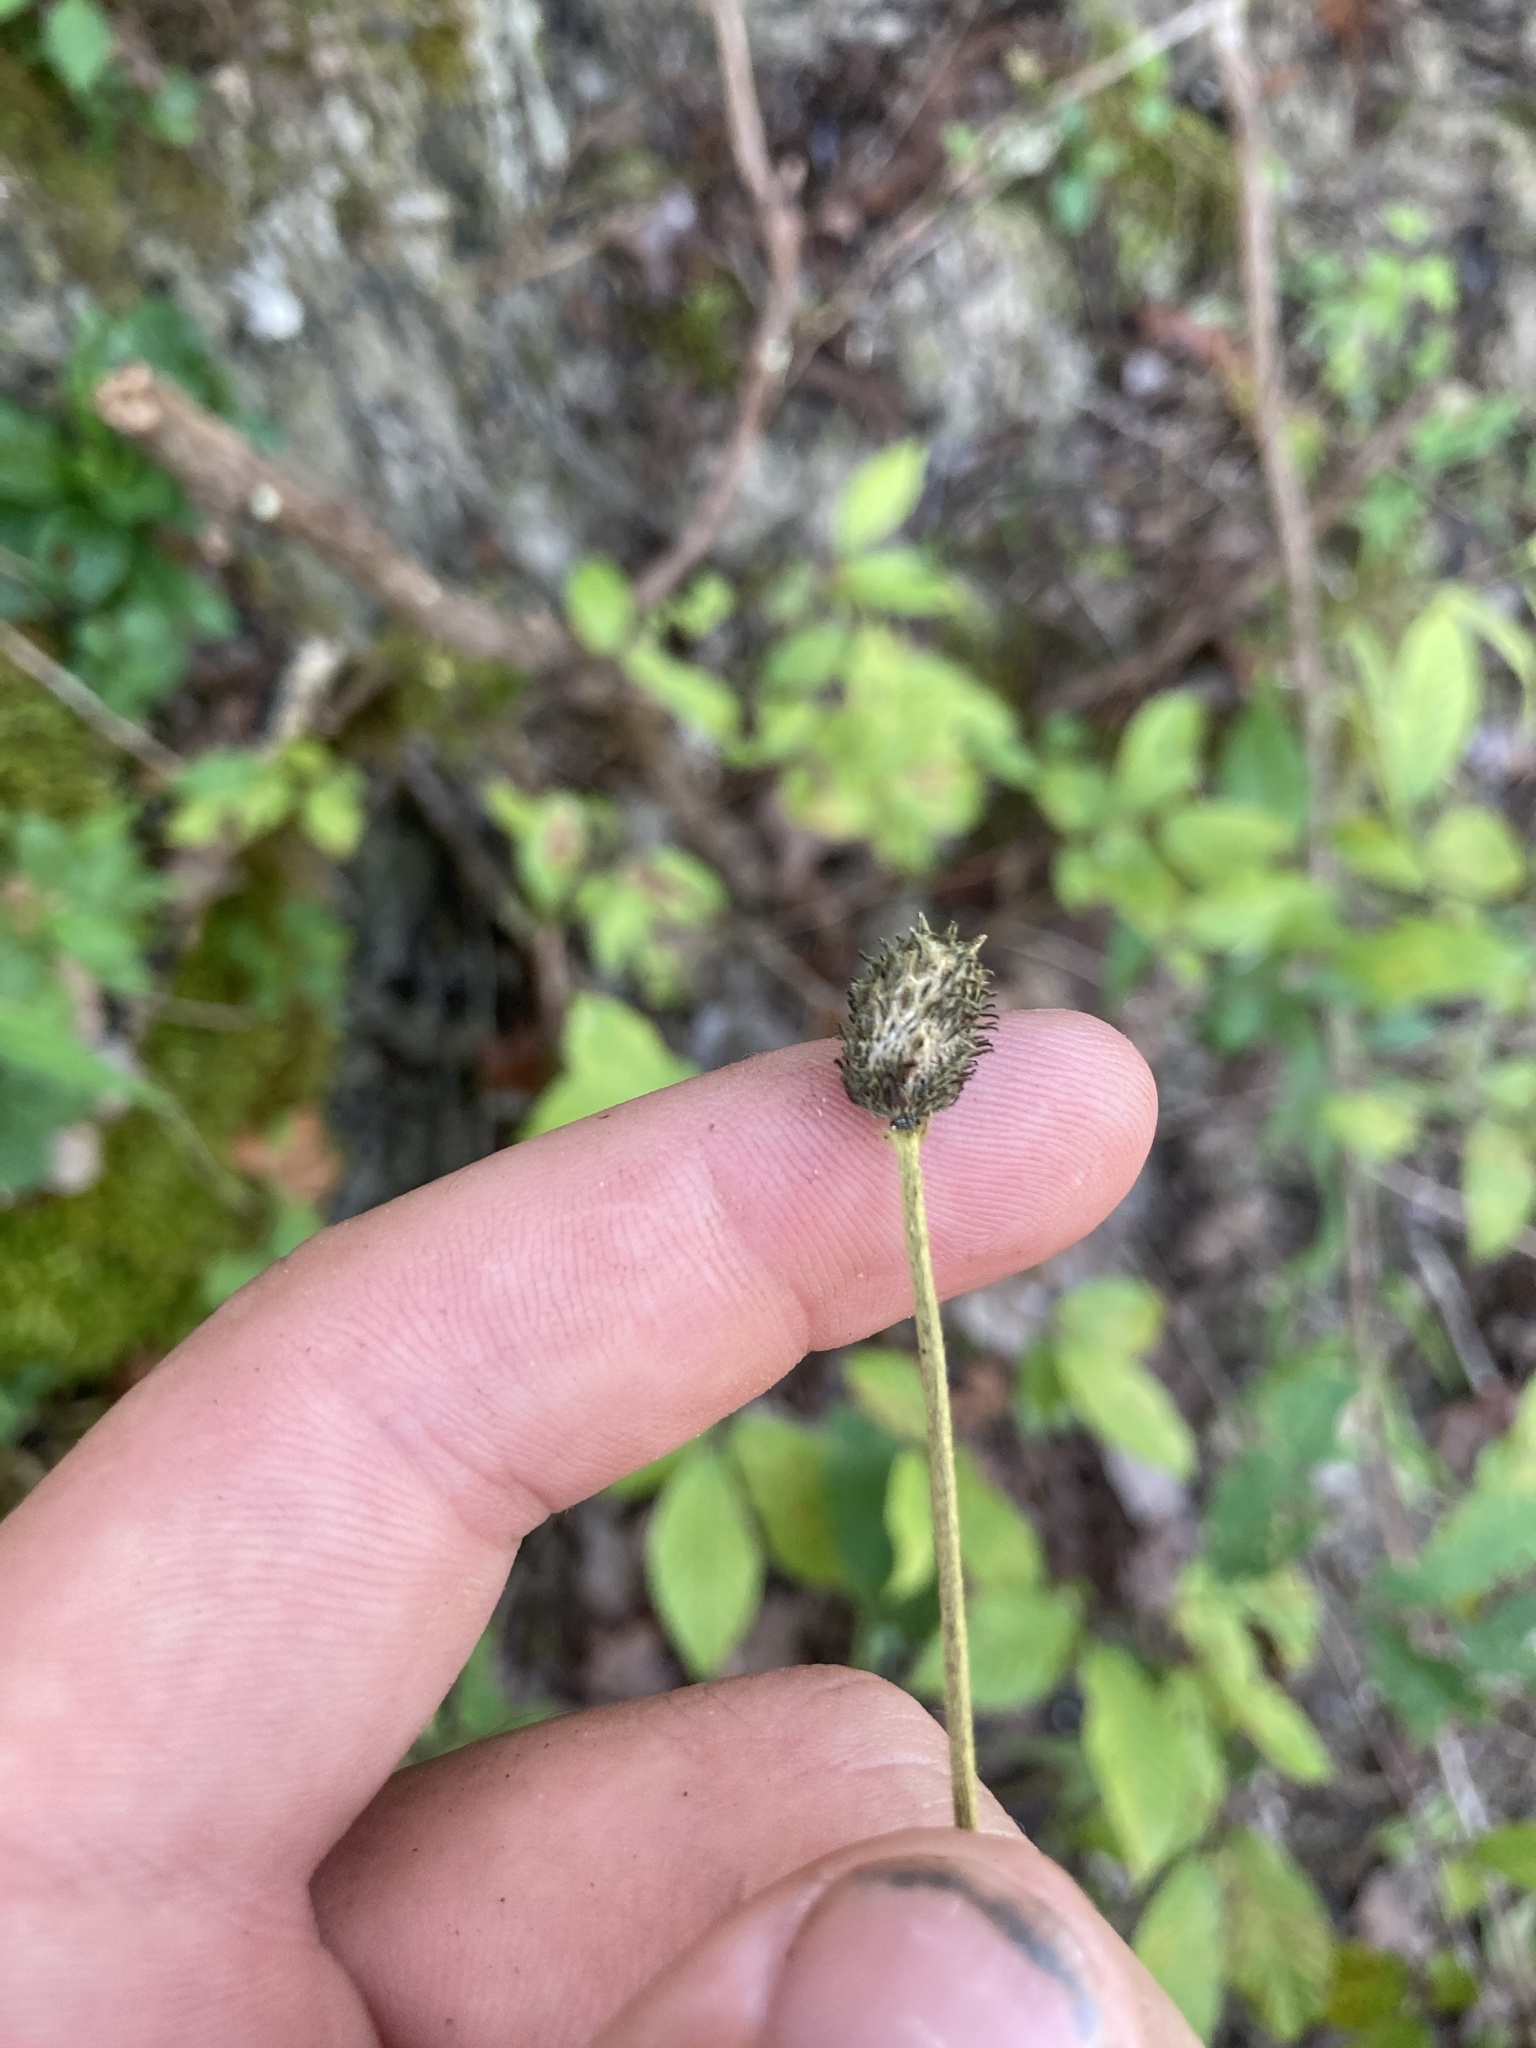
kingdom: Plantae
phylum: Tracheophyta
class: Magnoliopsida
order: Ranunculales
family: Ranunculaceae
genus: Anemone
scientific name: Anemone virginiana
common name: Tall anemone
